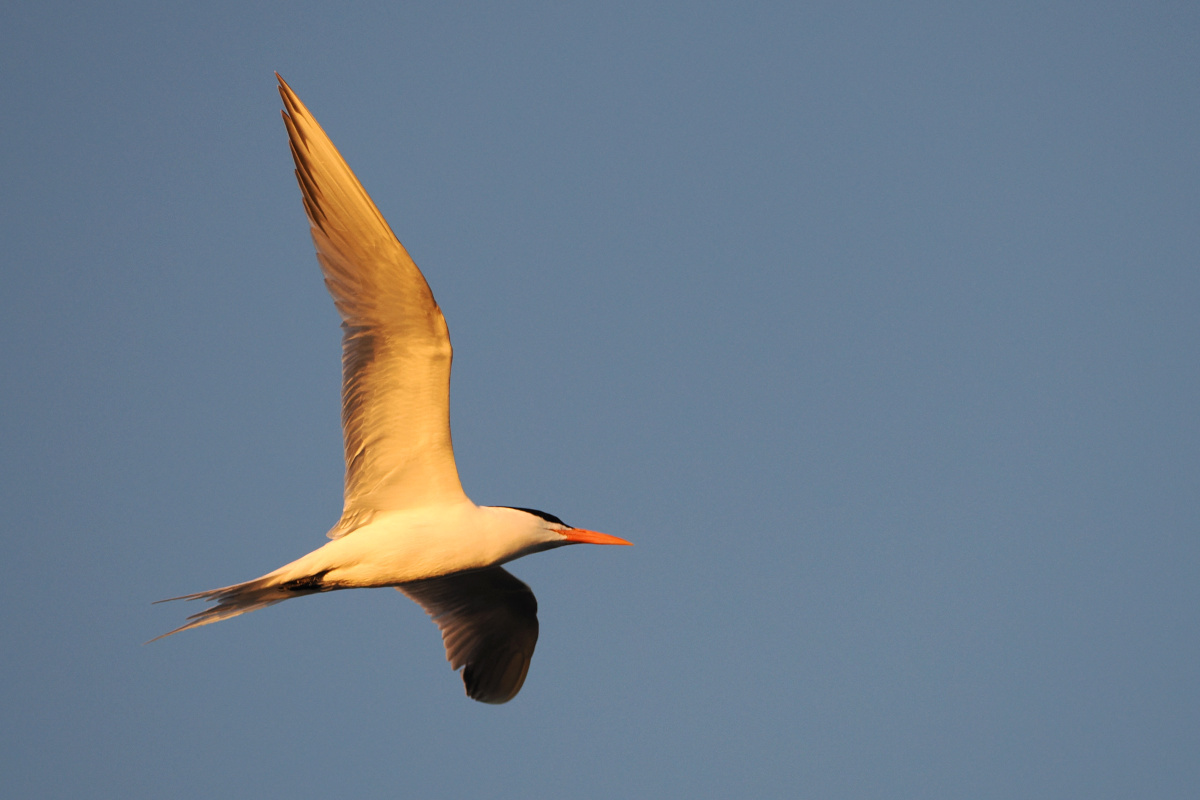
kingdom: Animalia
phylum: Chordata
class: Aves
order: Charadriiformes
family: Laridae
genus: Thalasseus
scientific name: Thalasseus maximus
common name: Royal tern
